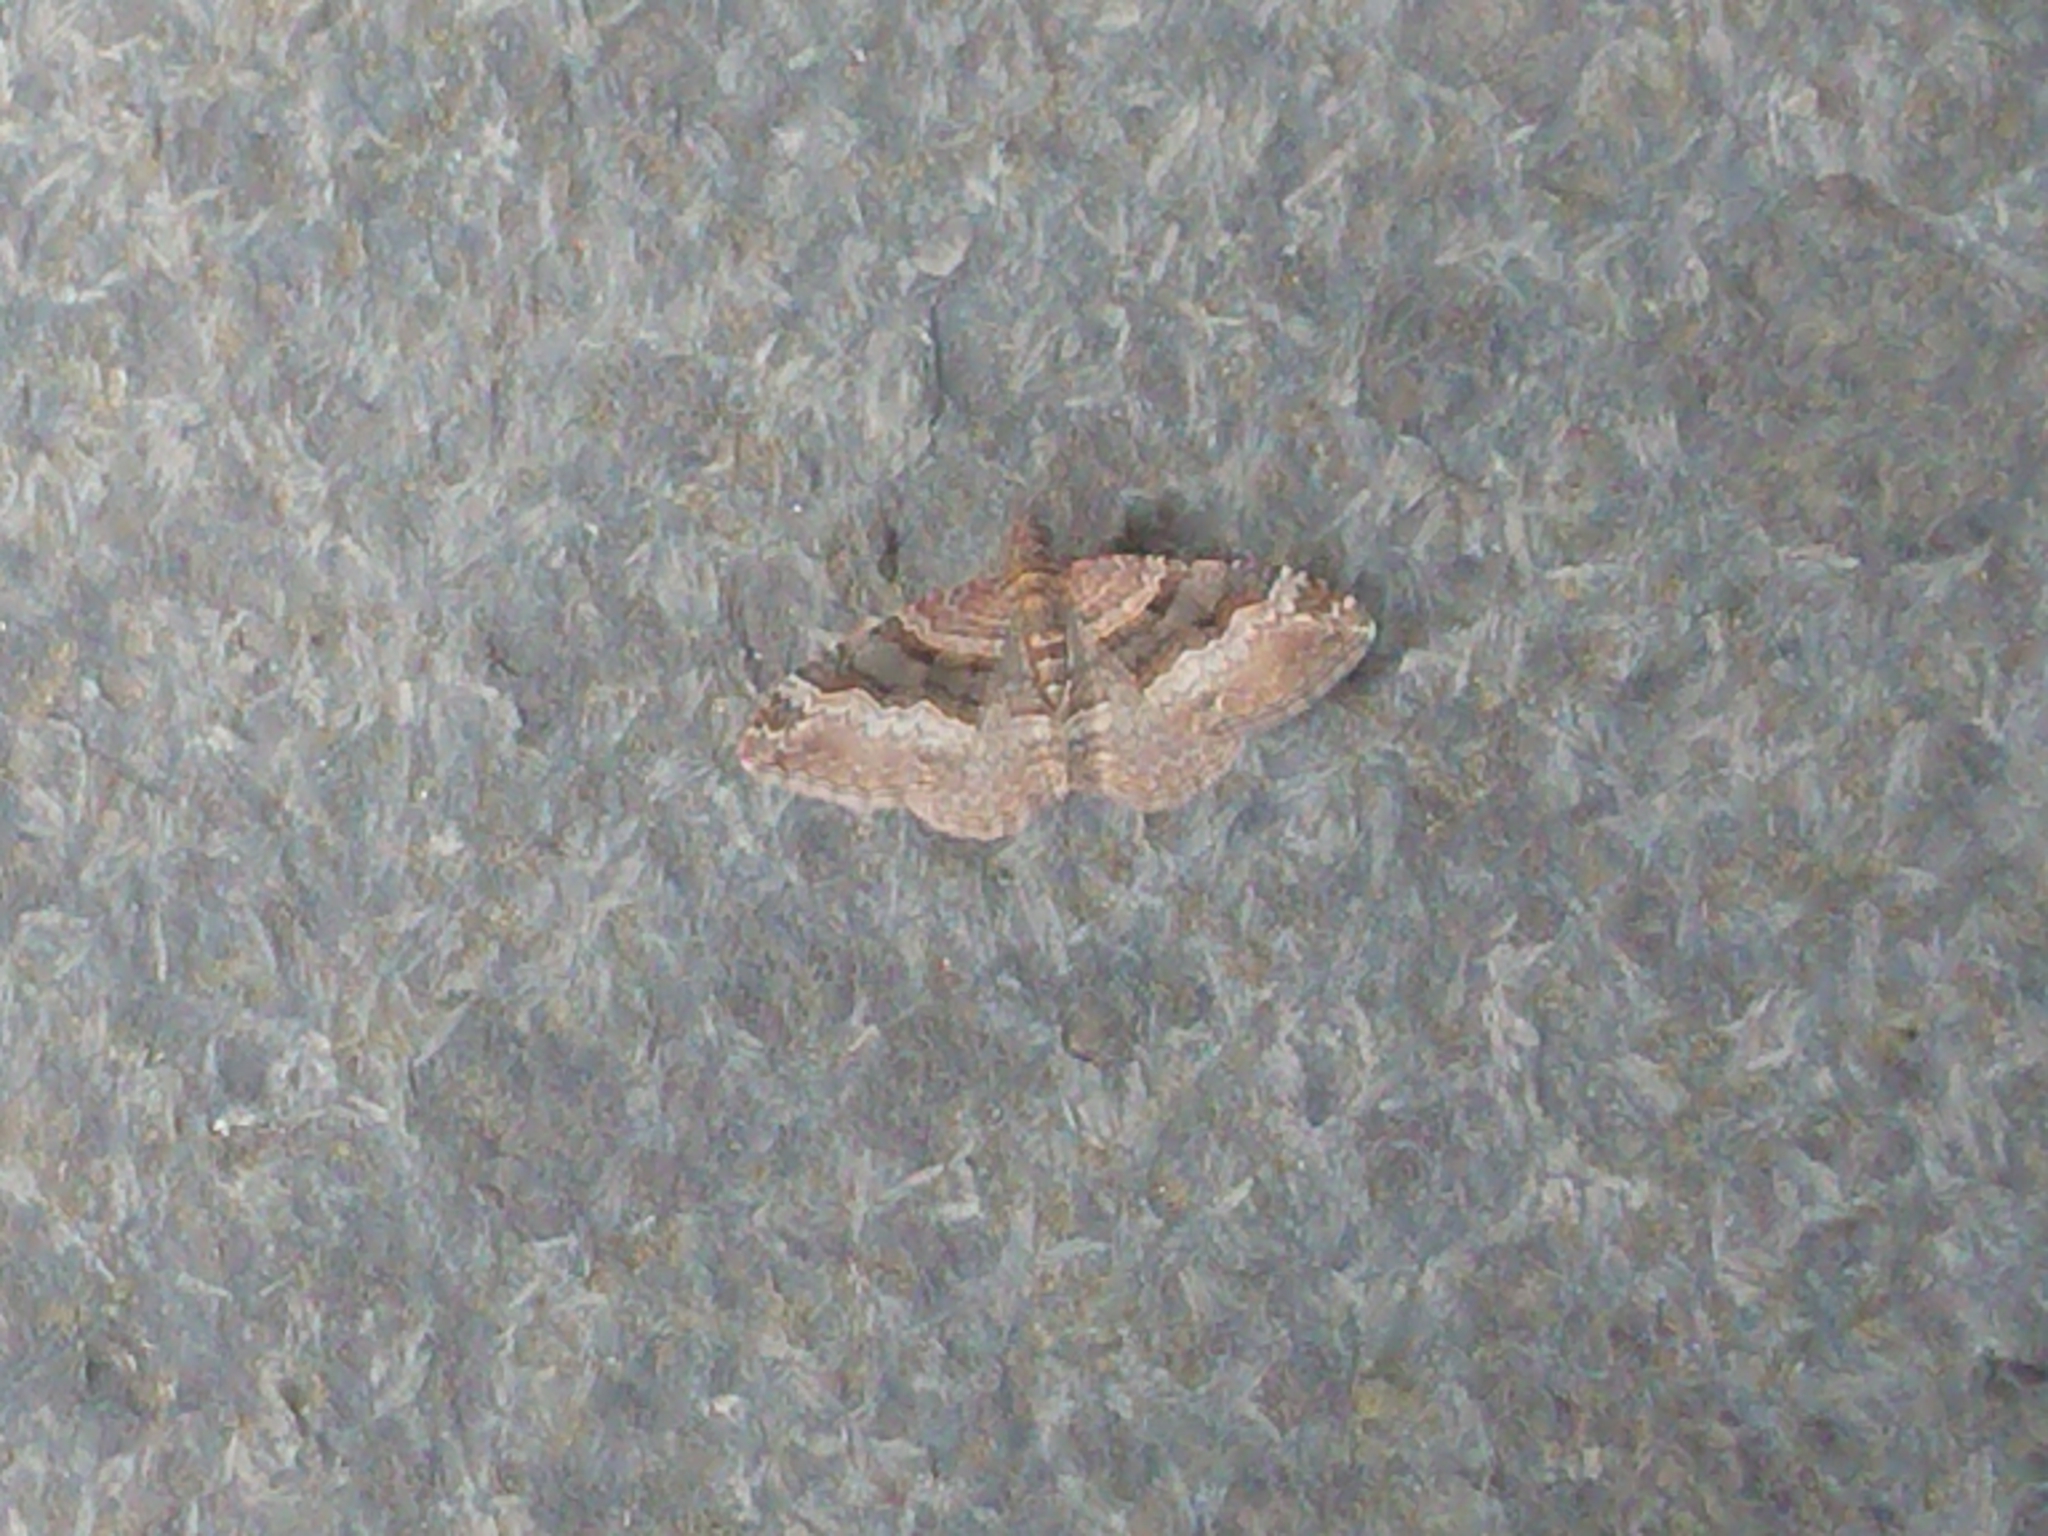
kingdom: Animalia
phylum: Arthropoda
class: Insecta
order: Lepidoptera
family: Geometridae
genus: Epyaxa
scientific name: Epyaxa lucidata
